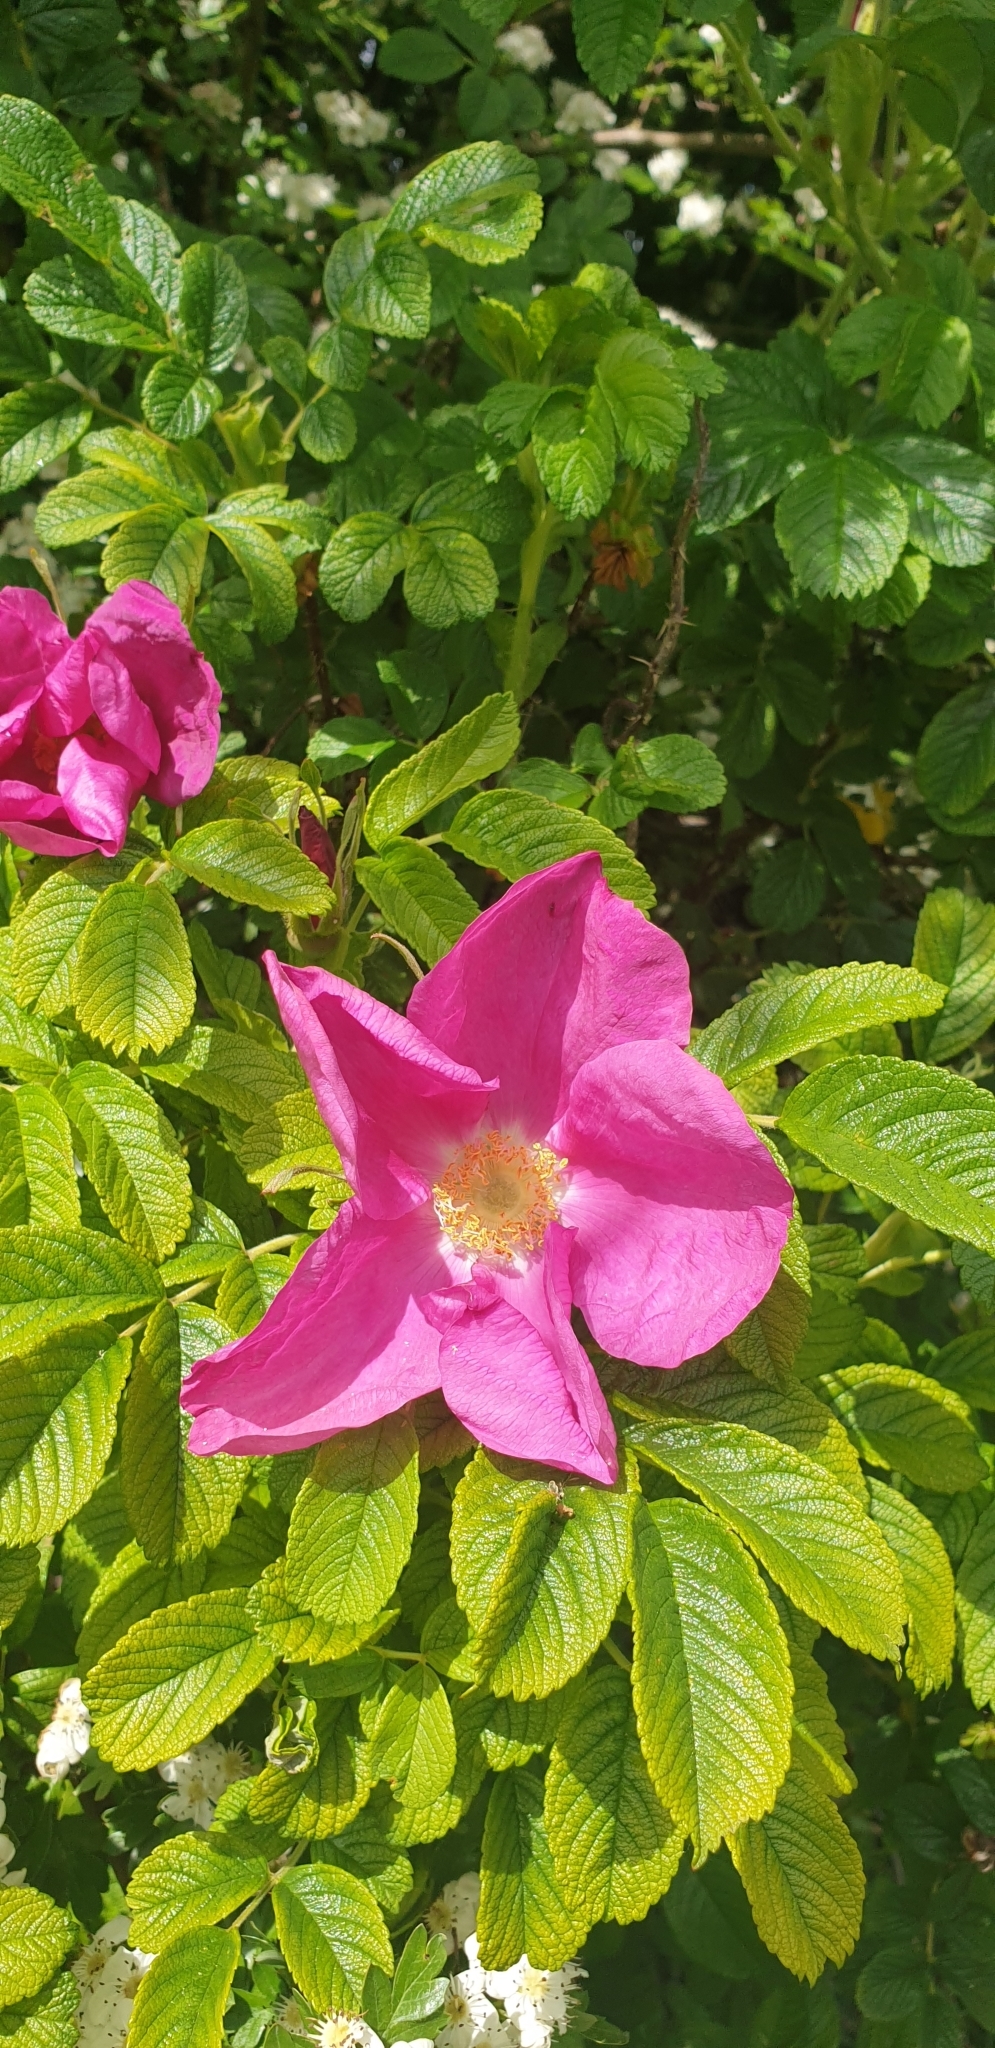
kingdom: Plantae
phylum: Tracheophyta
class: Magnoliopsida
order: Rosales
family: Rosaceae
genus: Rosa
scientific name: Rosa rugosa
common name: Japanese rose
